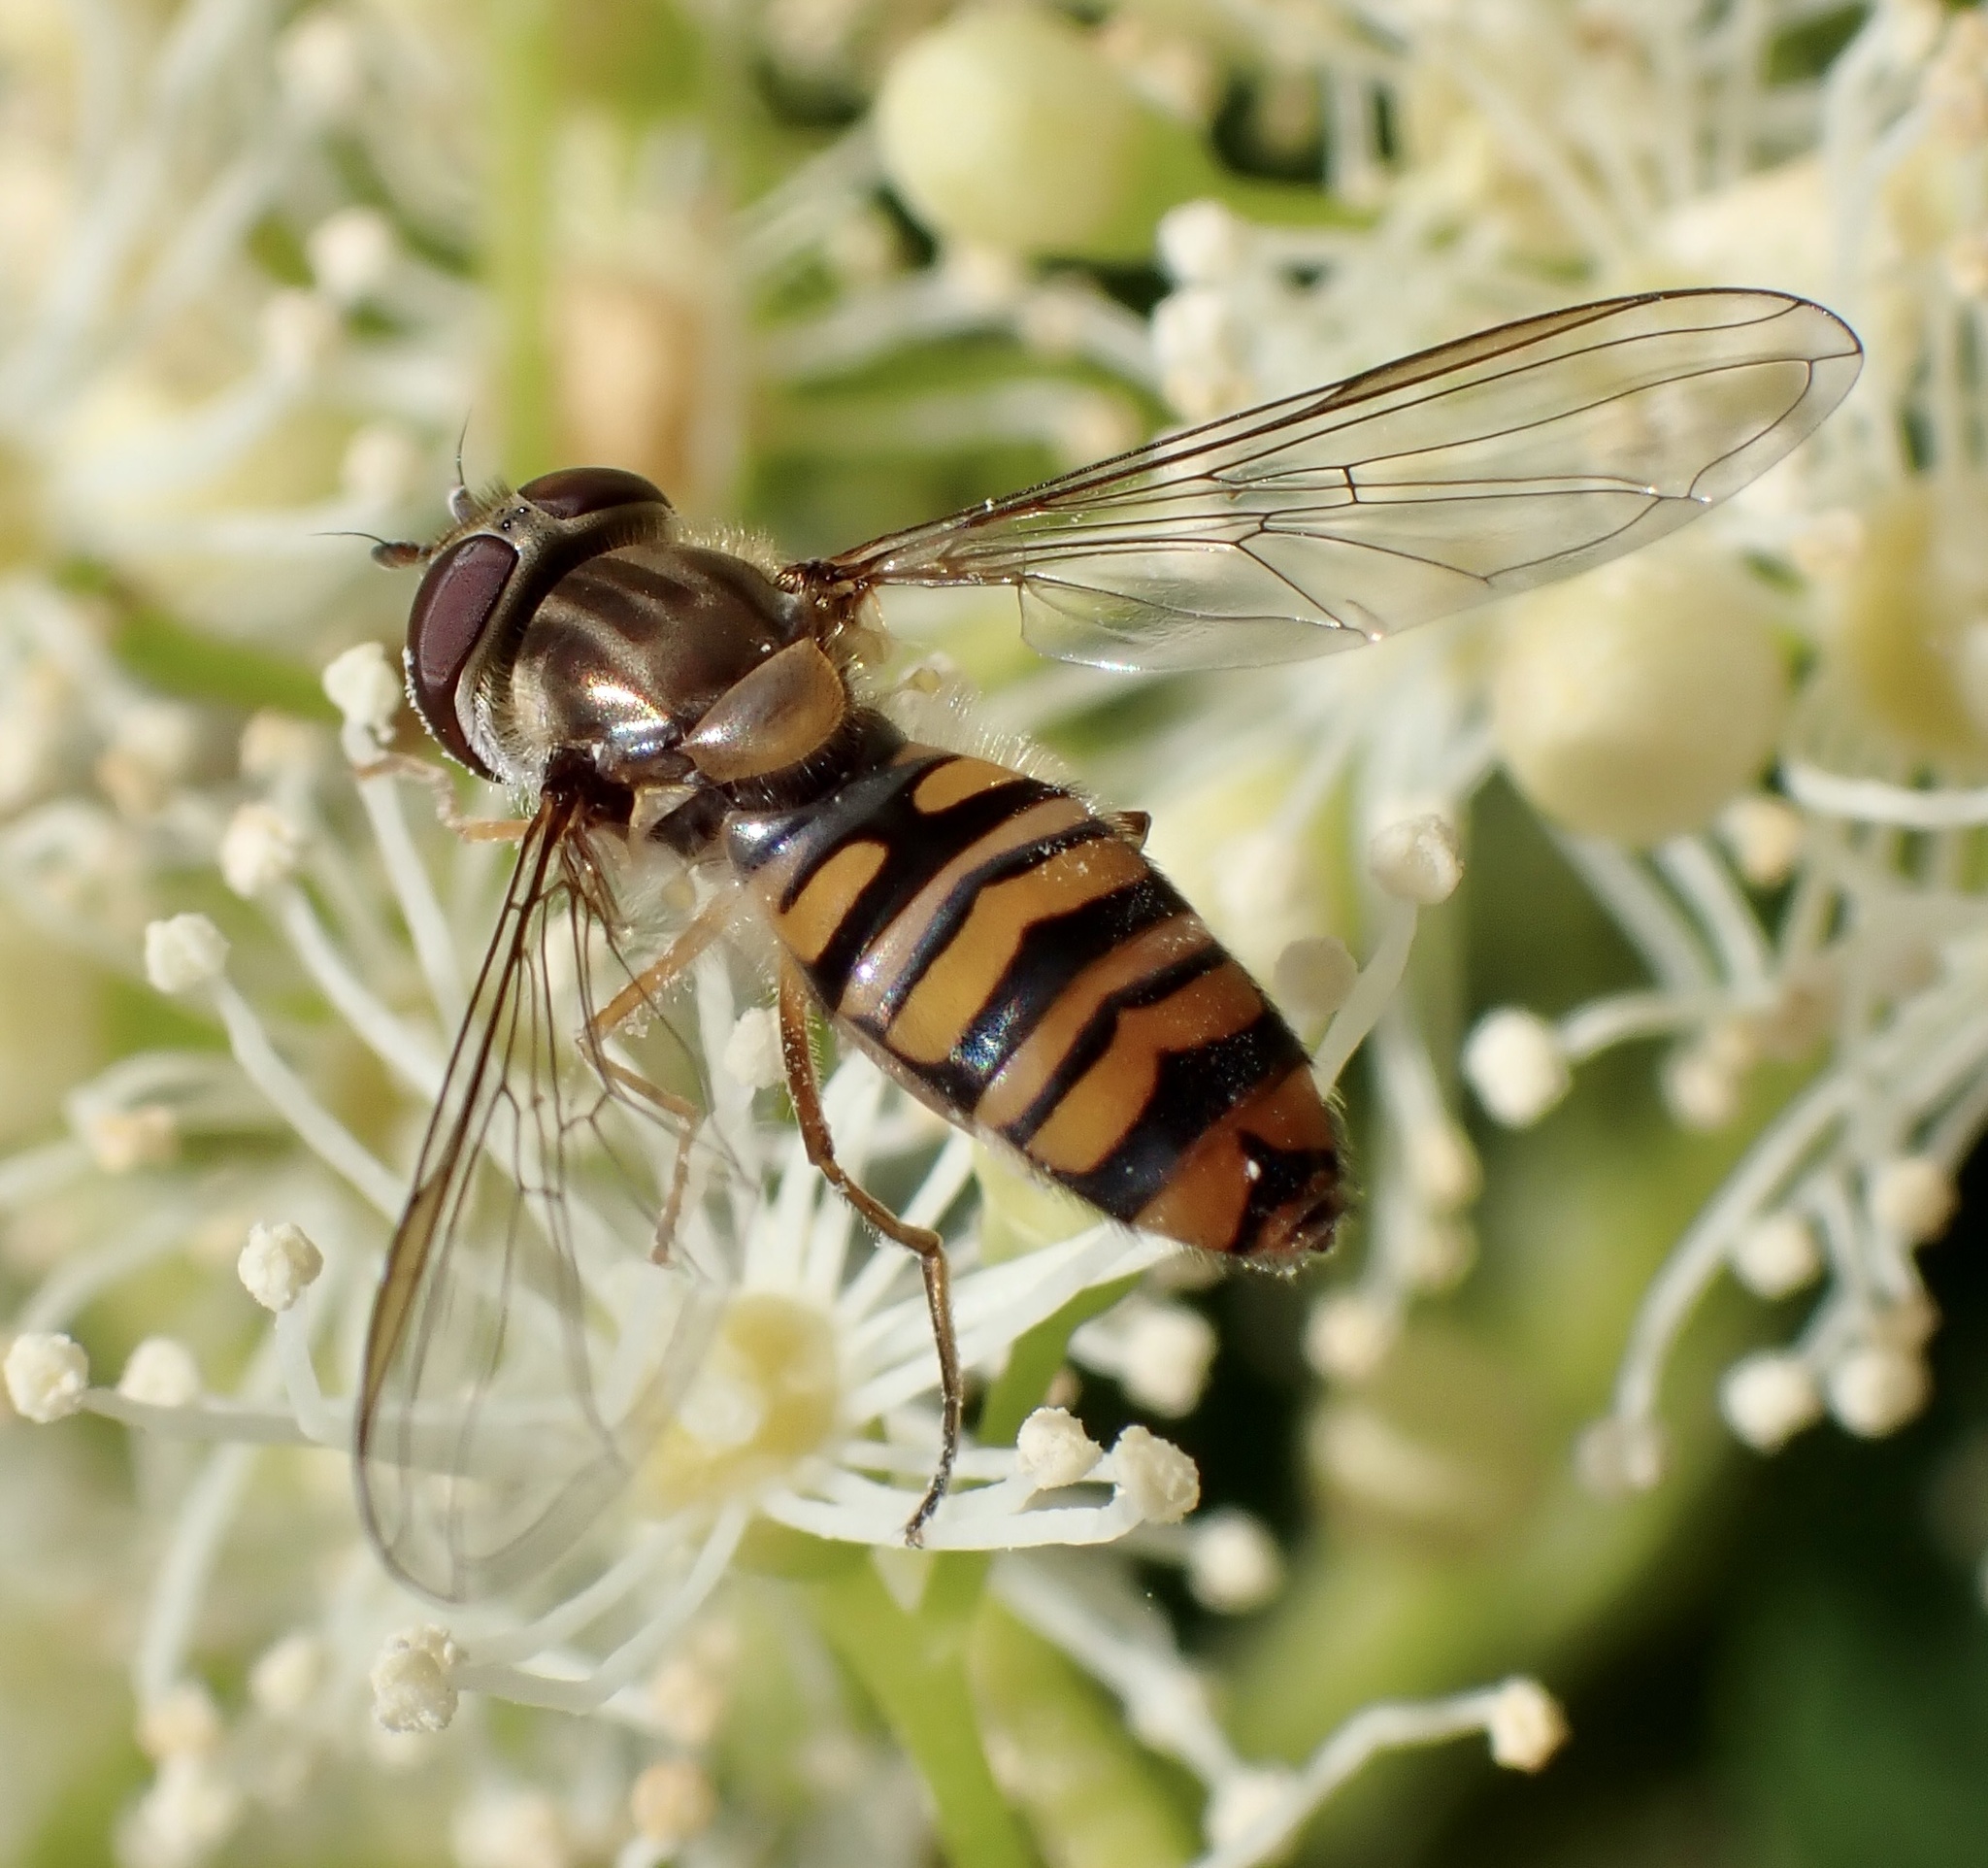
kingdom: Animalia
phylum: Arthropoda
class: Insecta
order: Diptera
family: Syrphidae
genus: Episyrphus
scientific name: Episyrphus balteatus
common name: Marmalade hoverfly
